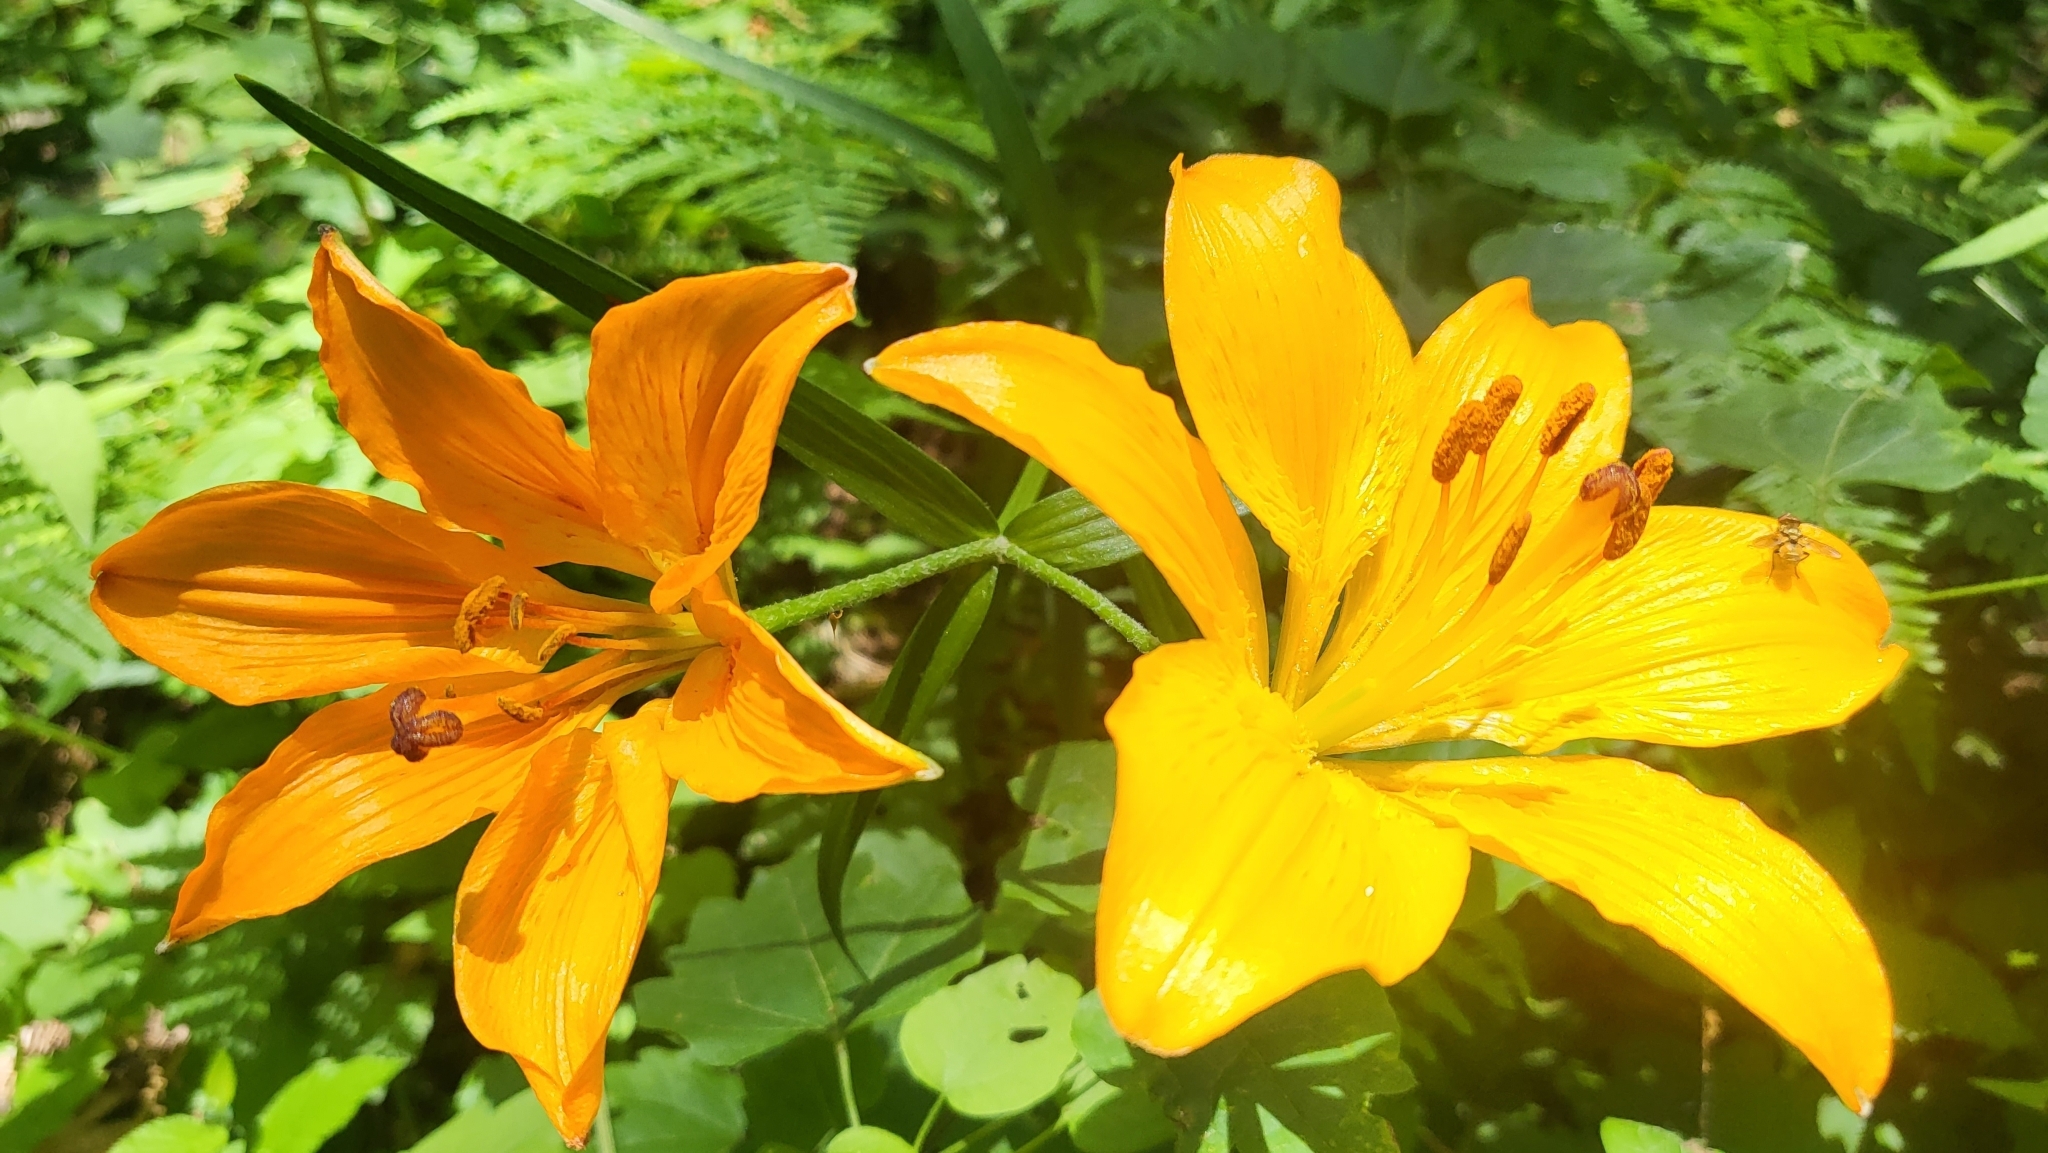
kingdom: Plantae
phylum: Tracheophyta
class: Liliopsida
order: Liliales
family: Liliaceae
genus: Lilium
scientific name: Lilium bulbiferum
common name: Orange lily
